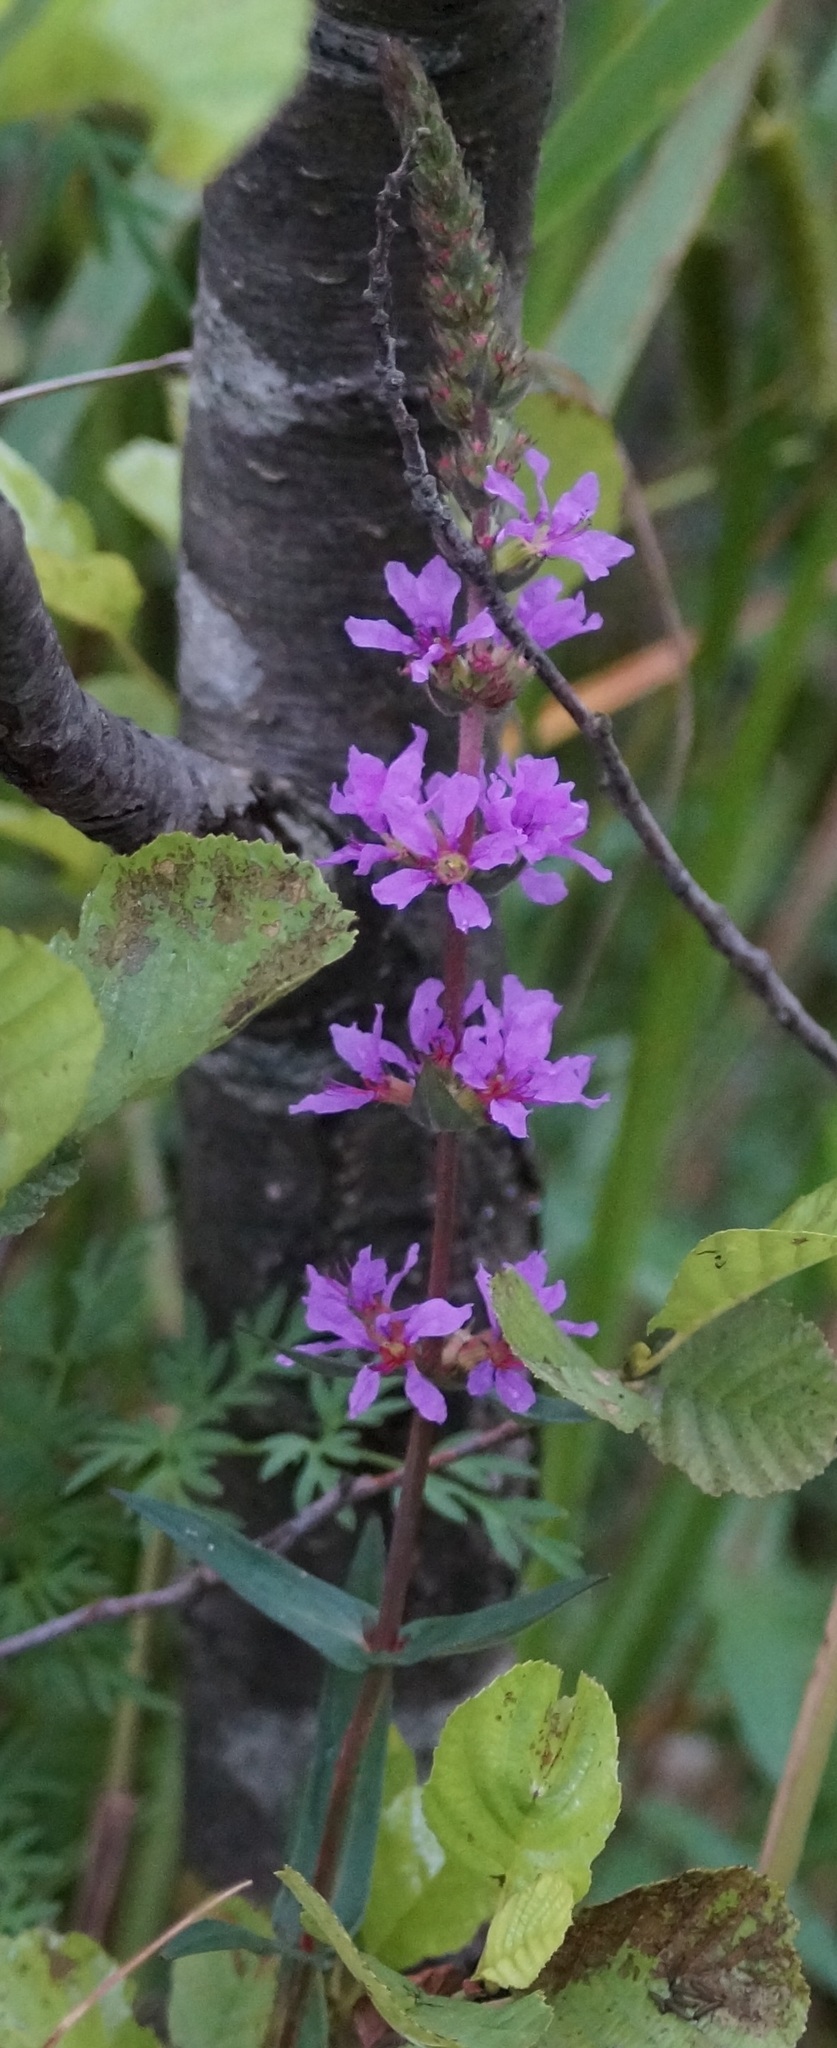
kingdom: Plantae
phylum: Tracheophyta
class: Magnoliopsida
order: Myrtales
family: Lythraceae
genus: Lythrum
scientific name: Lythrum salicaria
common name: Purple loosestrife
